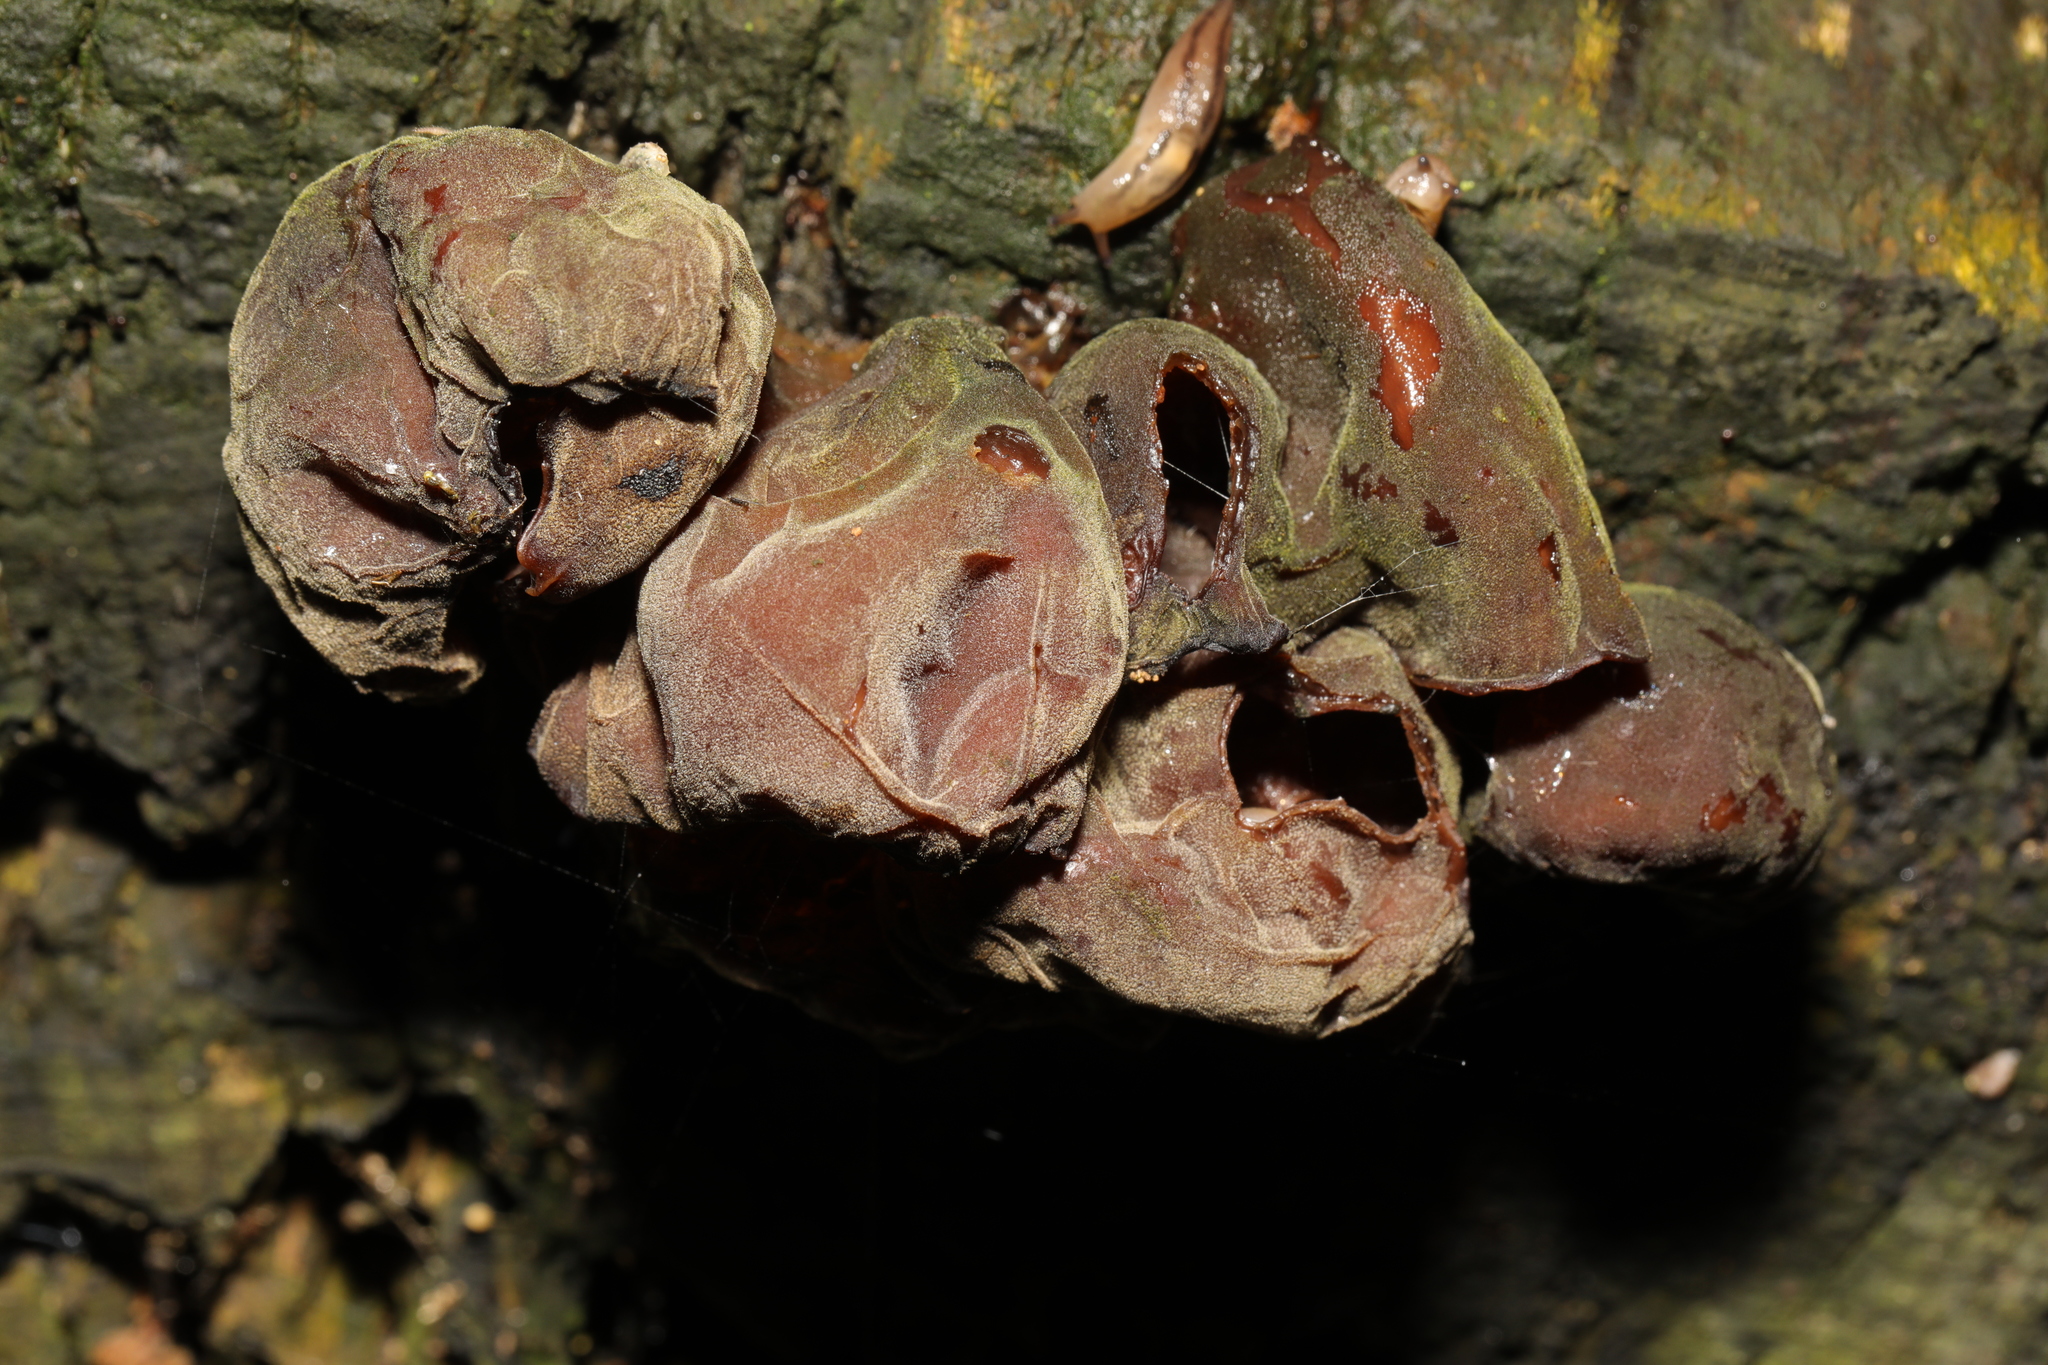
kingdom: Animalia
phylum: Mollusca
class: Gastropoda
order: Stylommatophora
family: Limacidae
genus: Ambigolimax
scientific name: Ambigolimax valentianus
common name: Greenhouse slug
